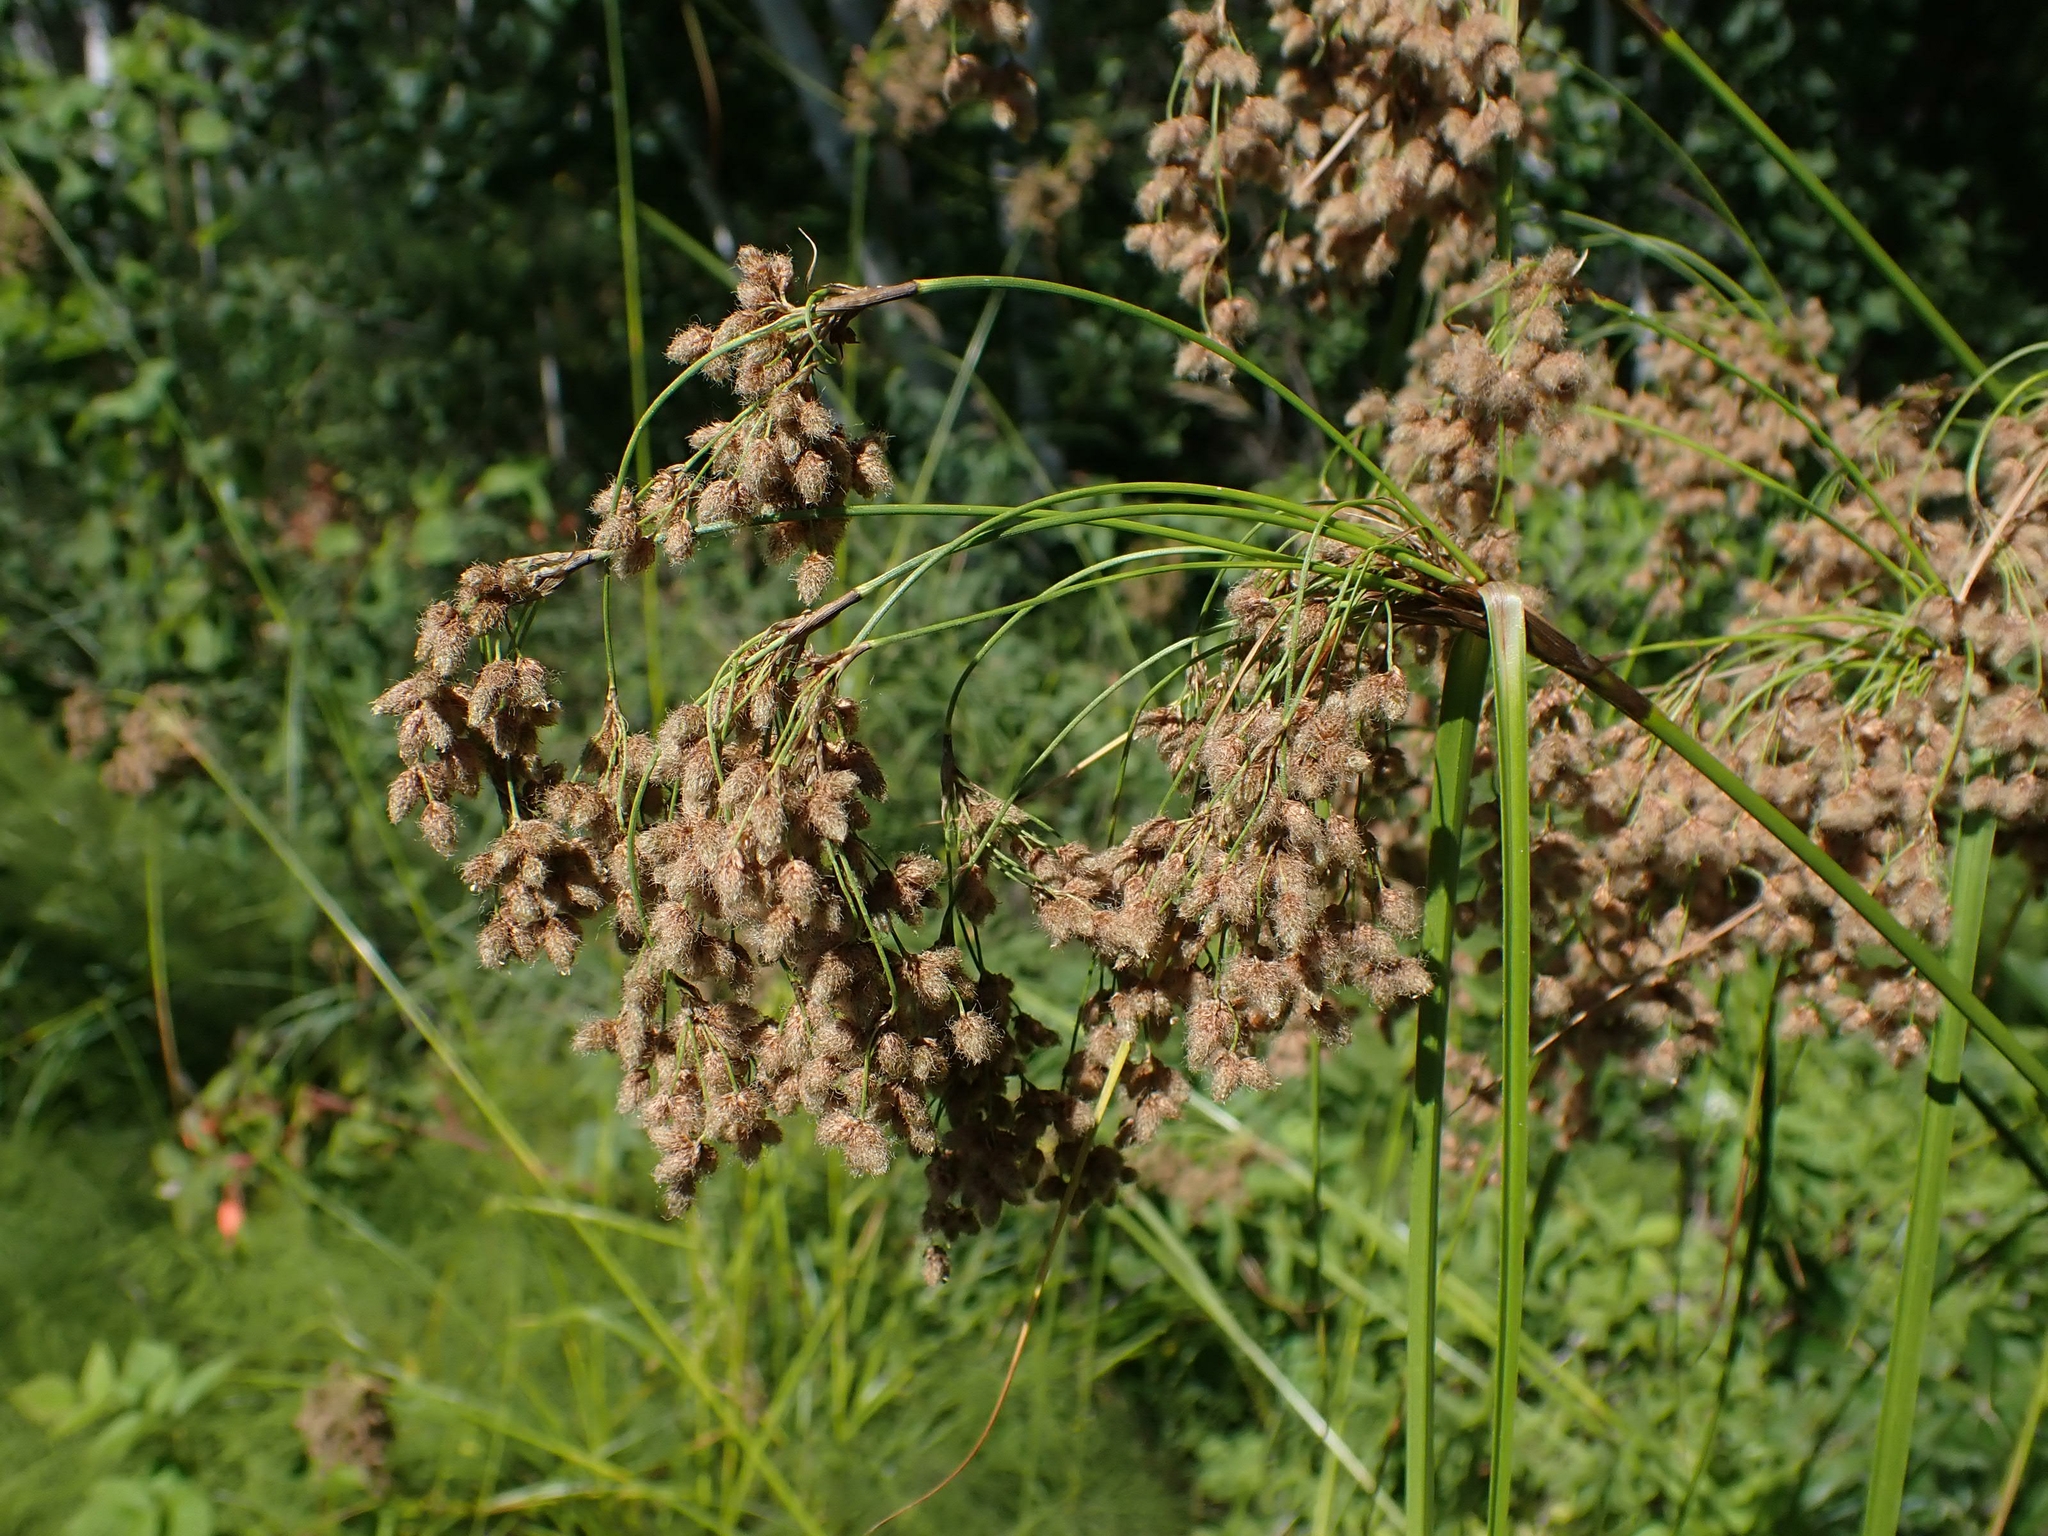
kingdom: Plantae
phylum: Tracheophyta
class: Liliopsida
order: Poales
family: Cyperaceae
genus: Scirpus
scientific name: Scirpus cyperinus
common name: Black-sheathed bulrush
